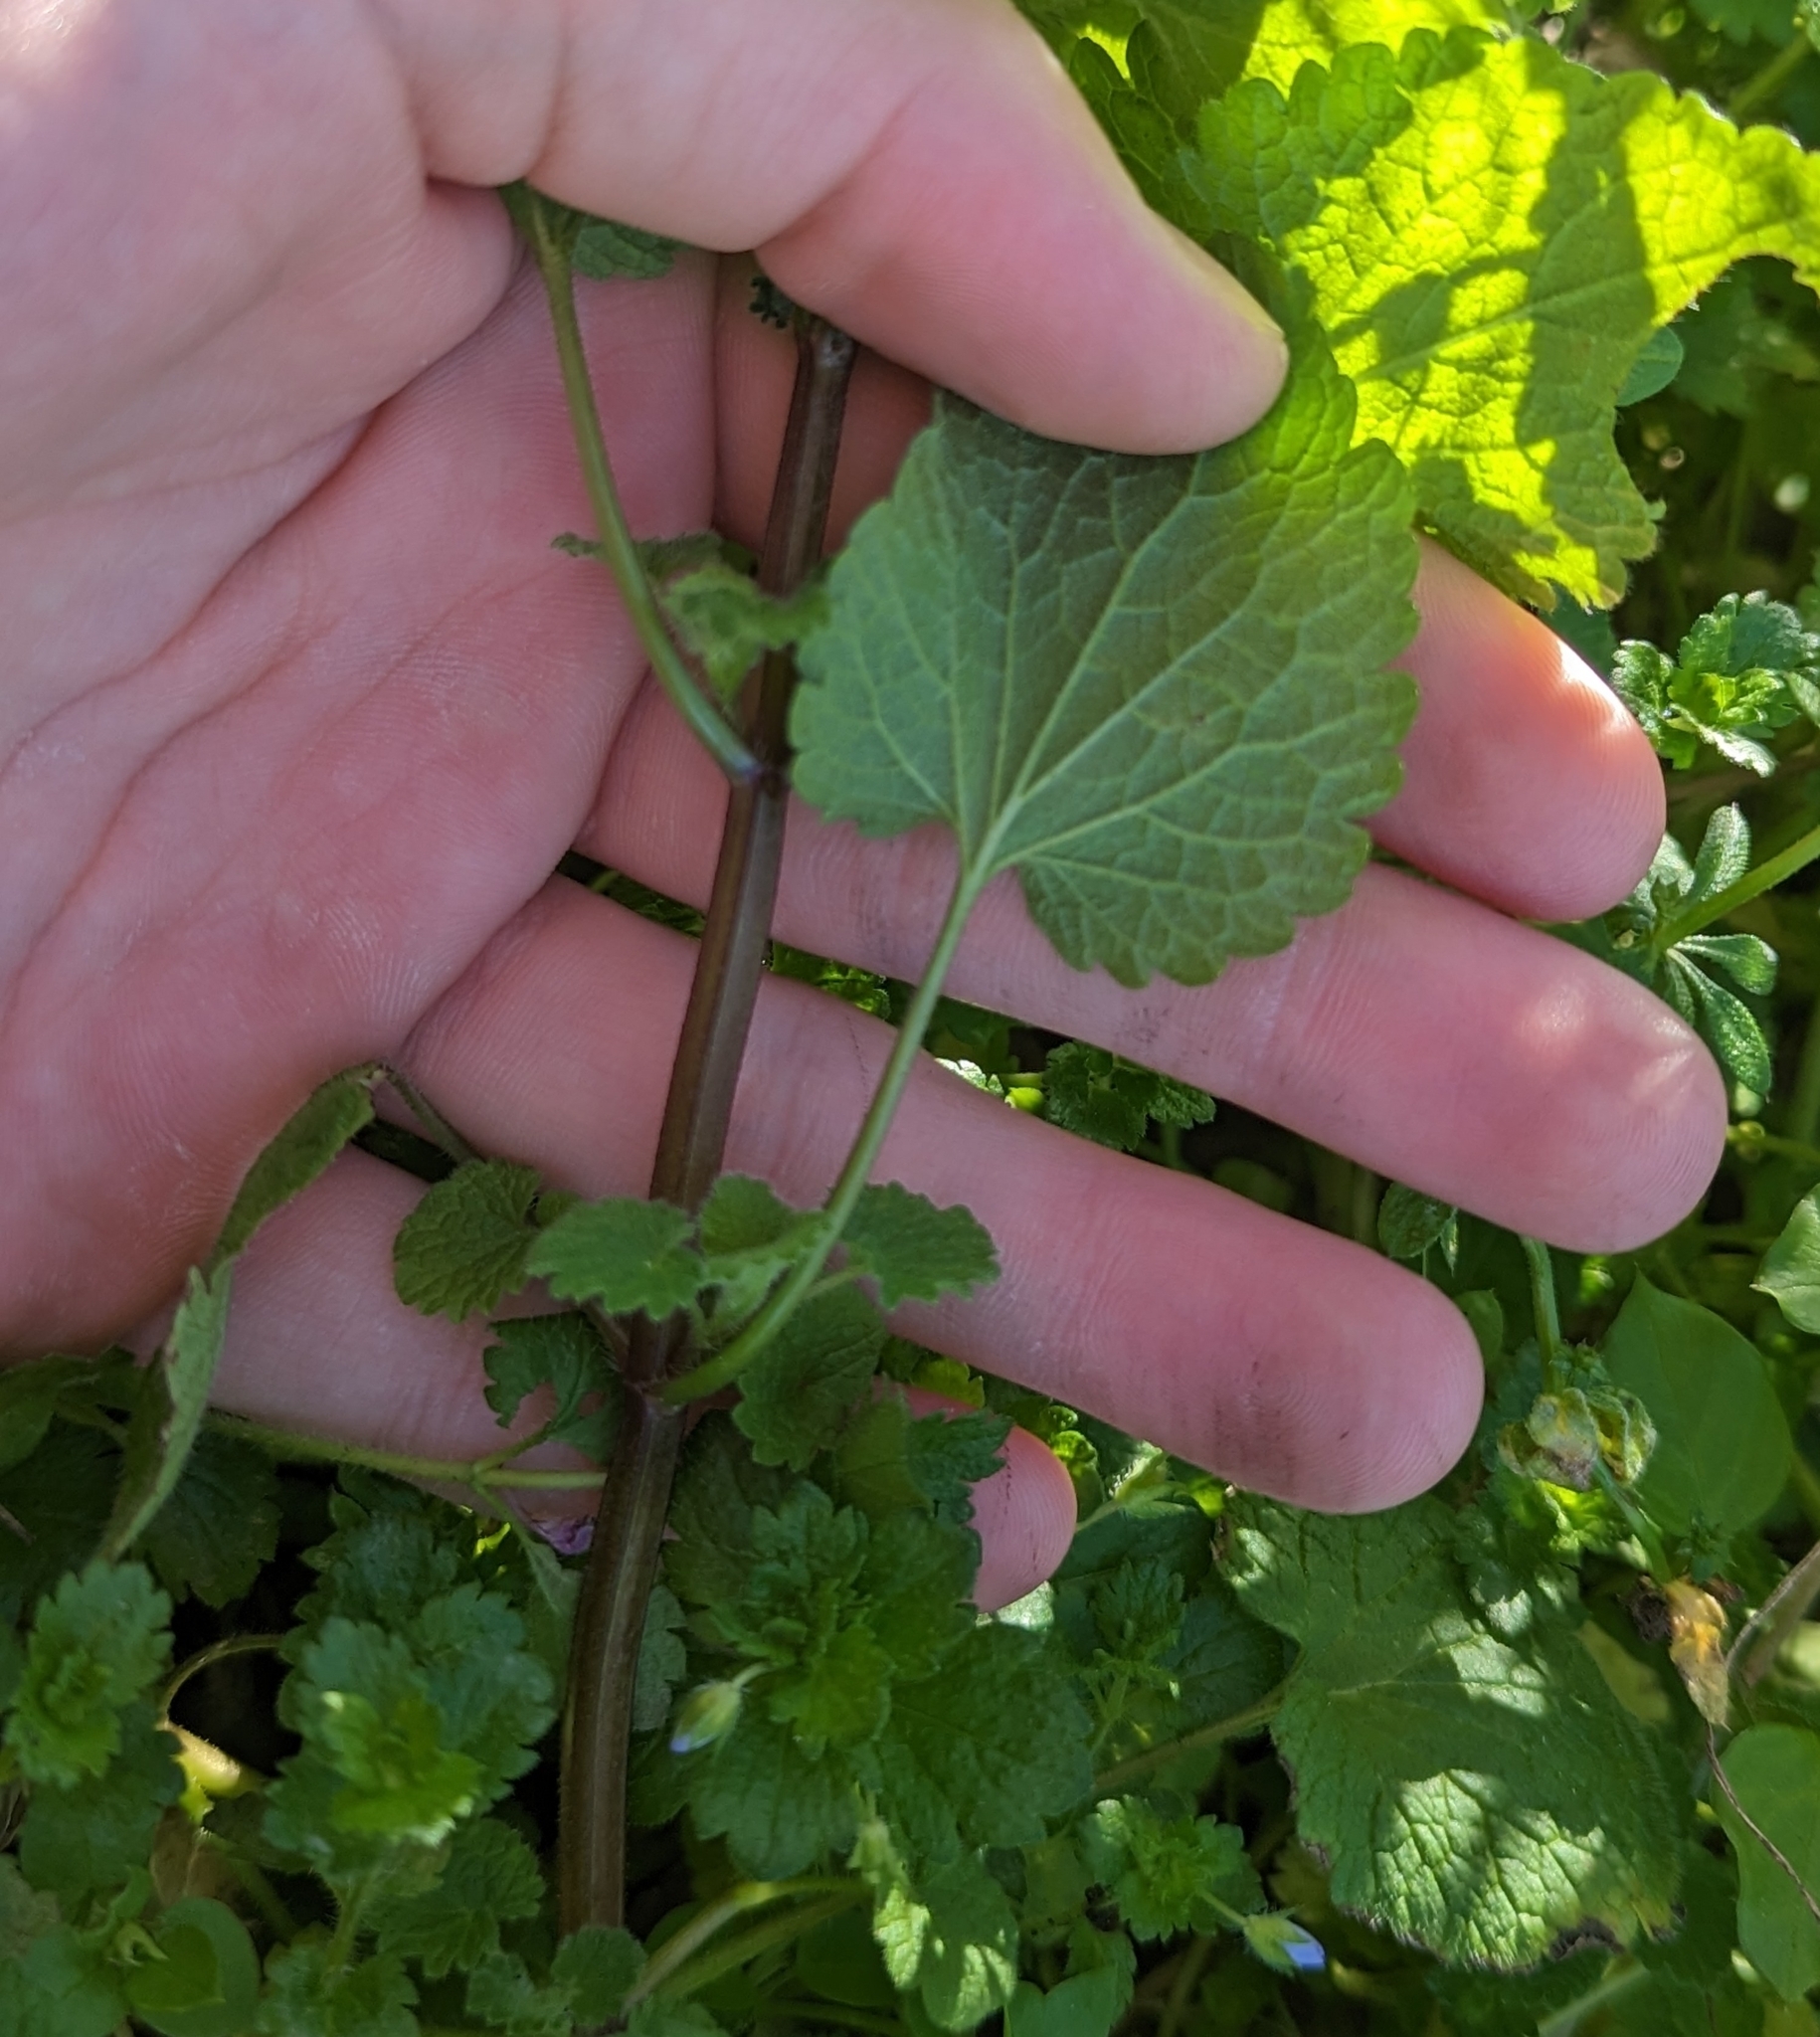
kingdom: Plantae
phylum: Tracheophyta
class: Magnoliopsida
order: Lamiales
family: Lamiaceae
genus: Lamium
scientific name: Lamium purpureum
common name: Red dead-nettle
